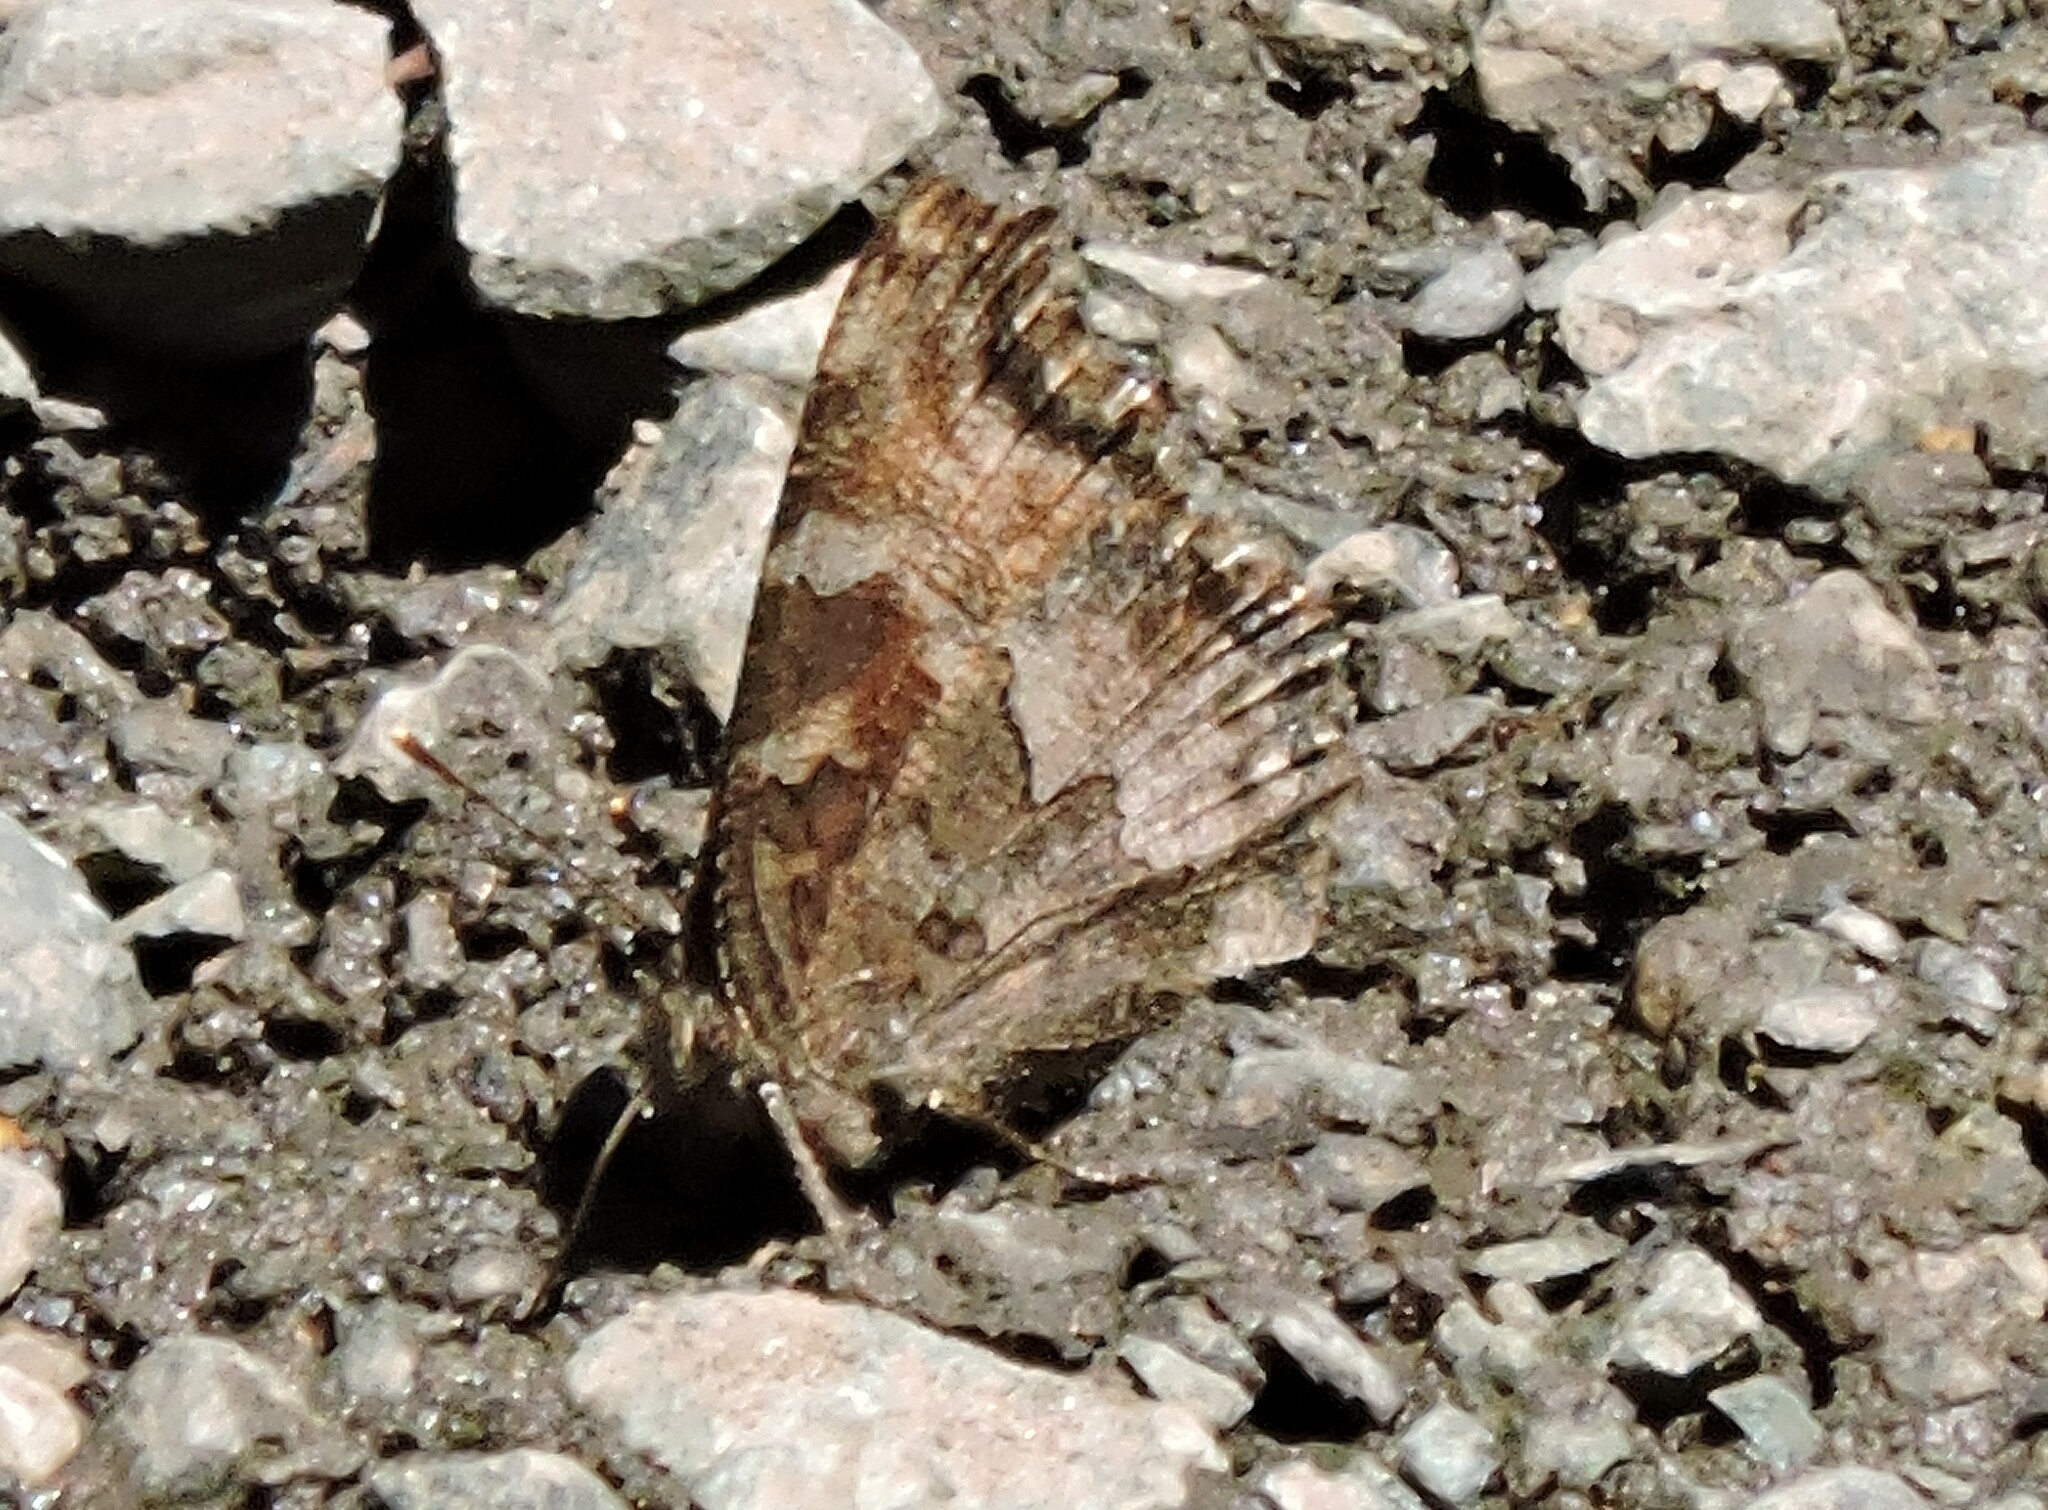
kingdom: Animalia
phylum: Arthropoda
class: Insecta
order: Lepidoptera
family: Nymphalidae
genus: Nymphalis
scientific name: Nymphalis californica
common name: California tortoiseshell
